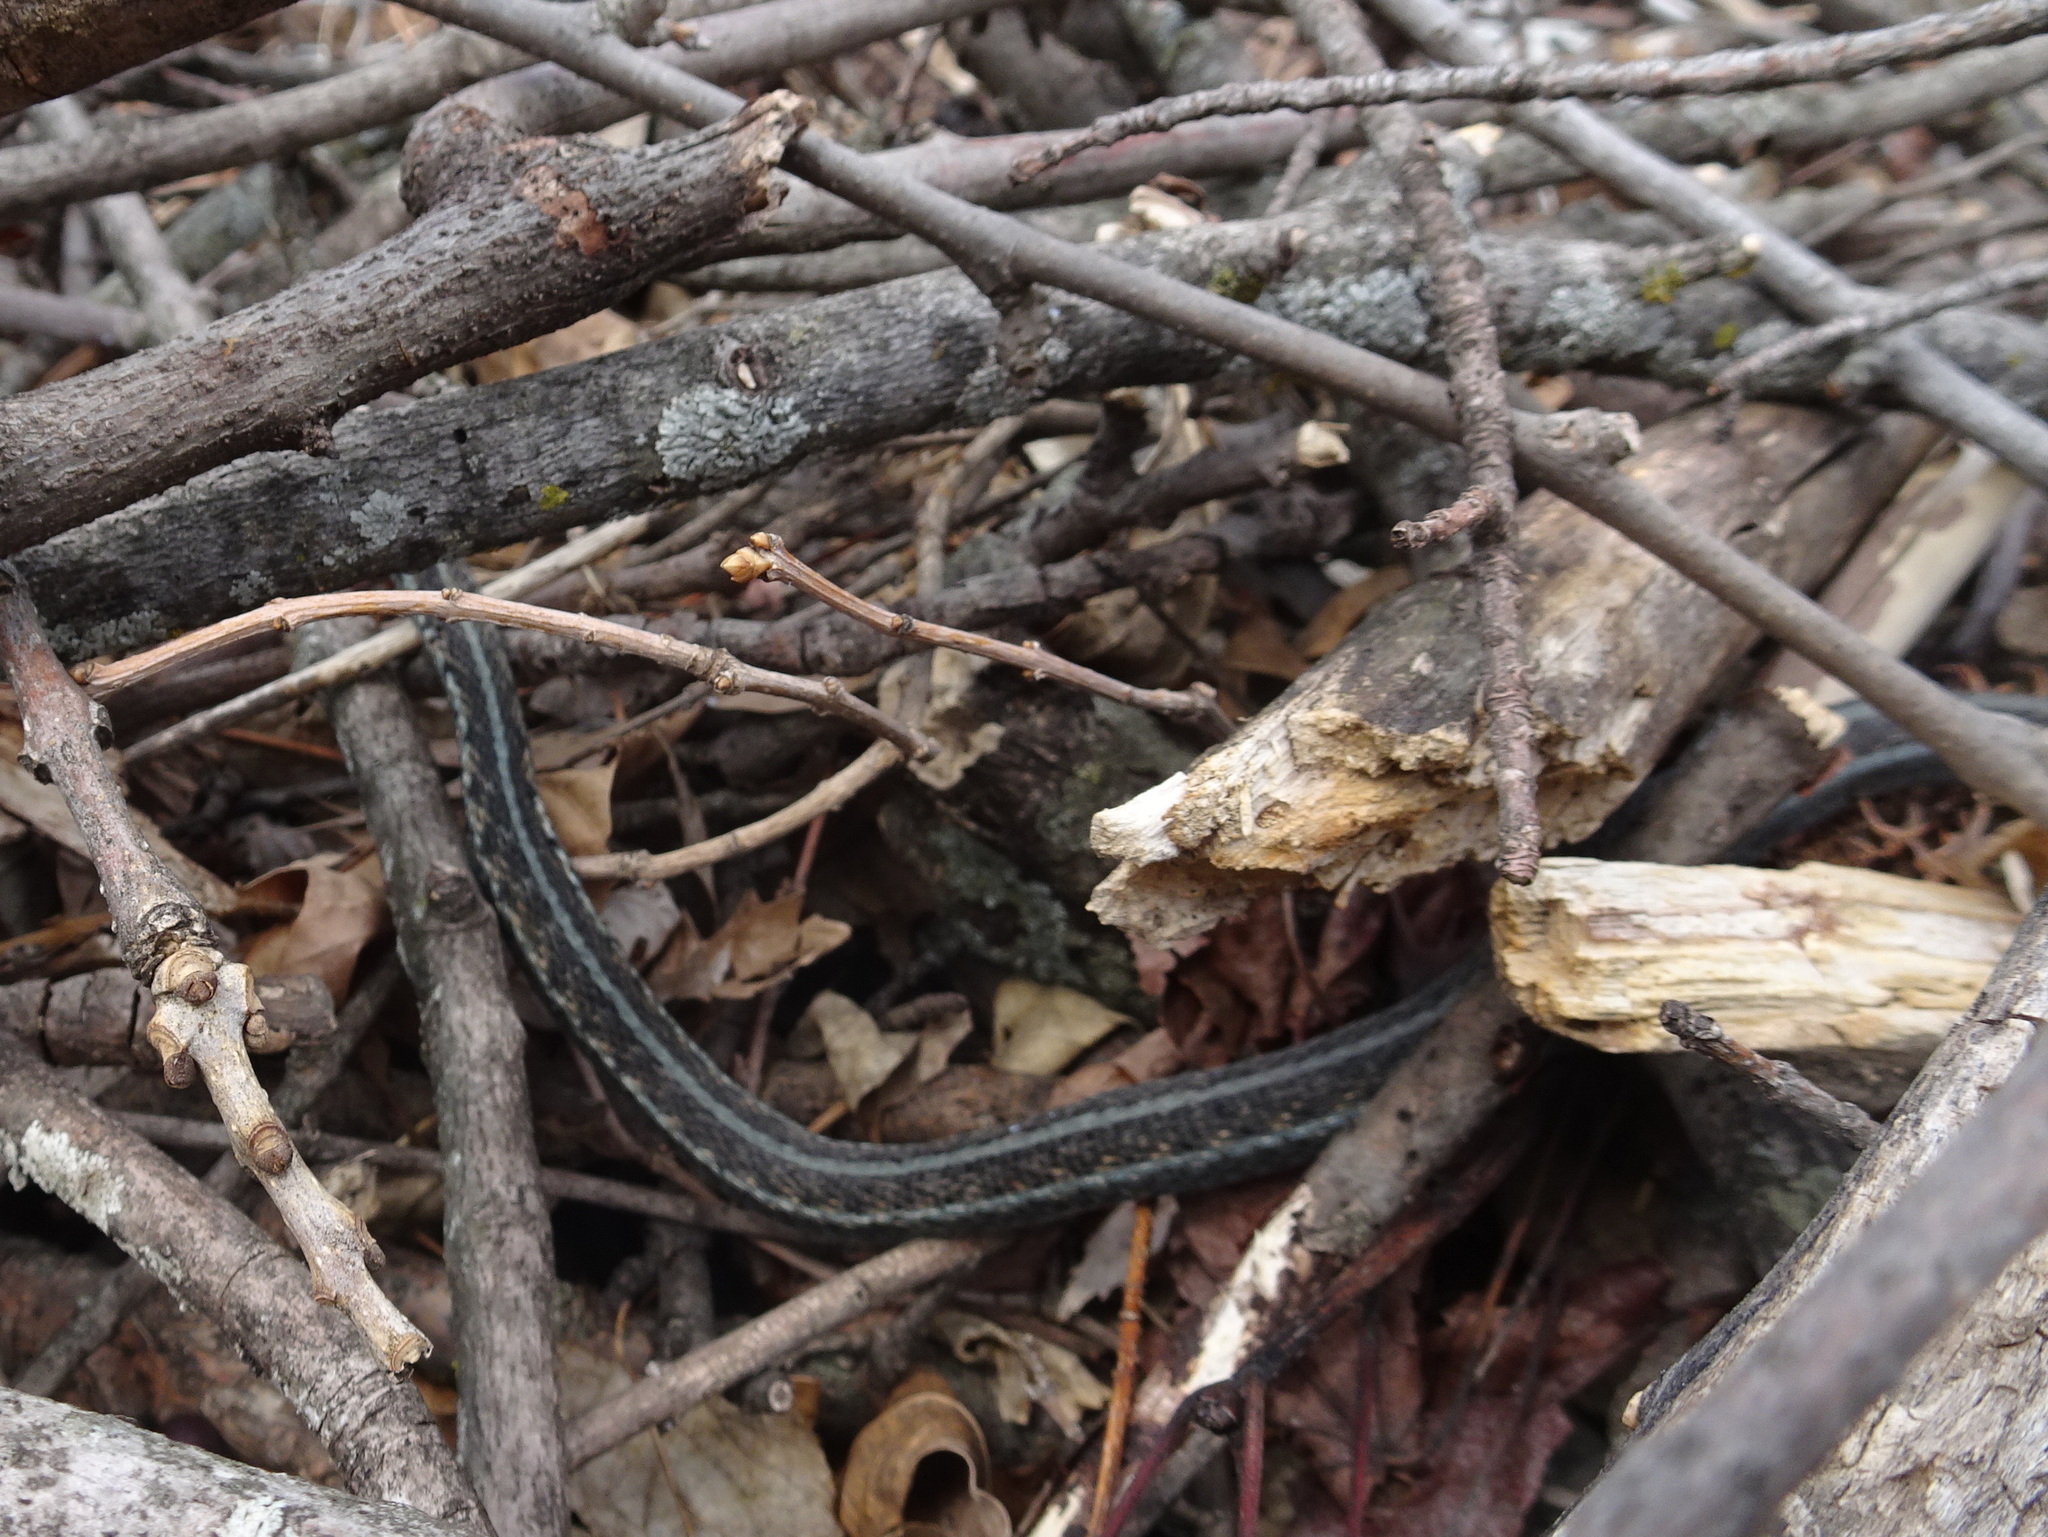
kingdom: Animalia
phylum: Chordata
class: Squamata
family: Colubridae
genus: Thamnophis
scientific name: Thamnophis sirtalis
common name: Common garter snake
